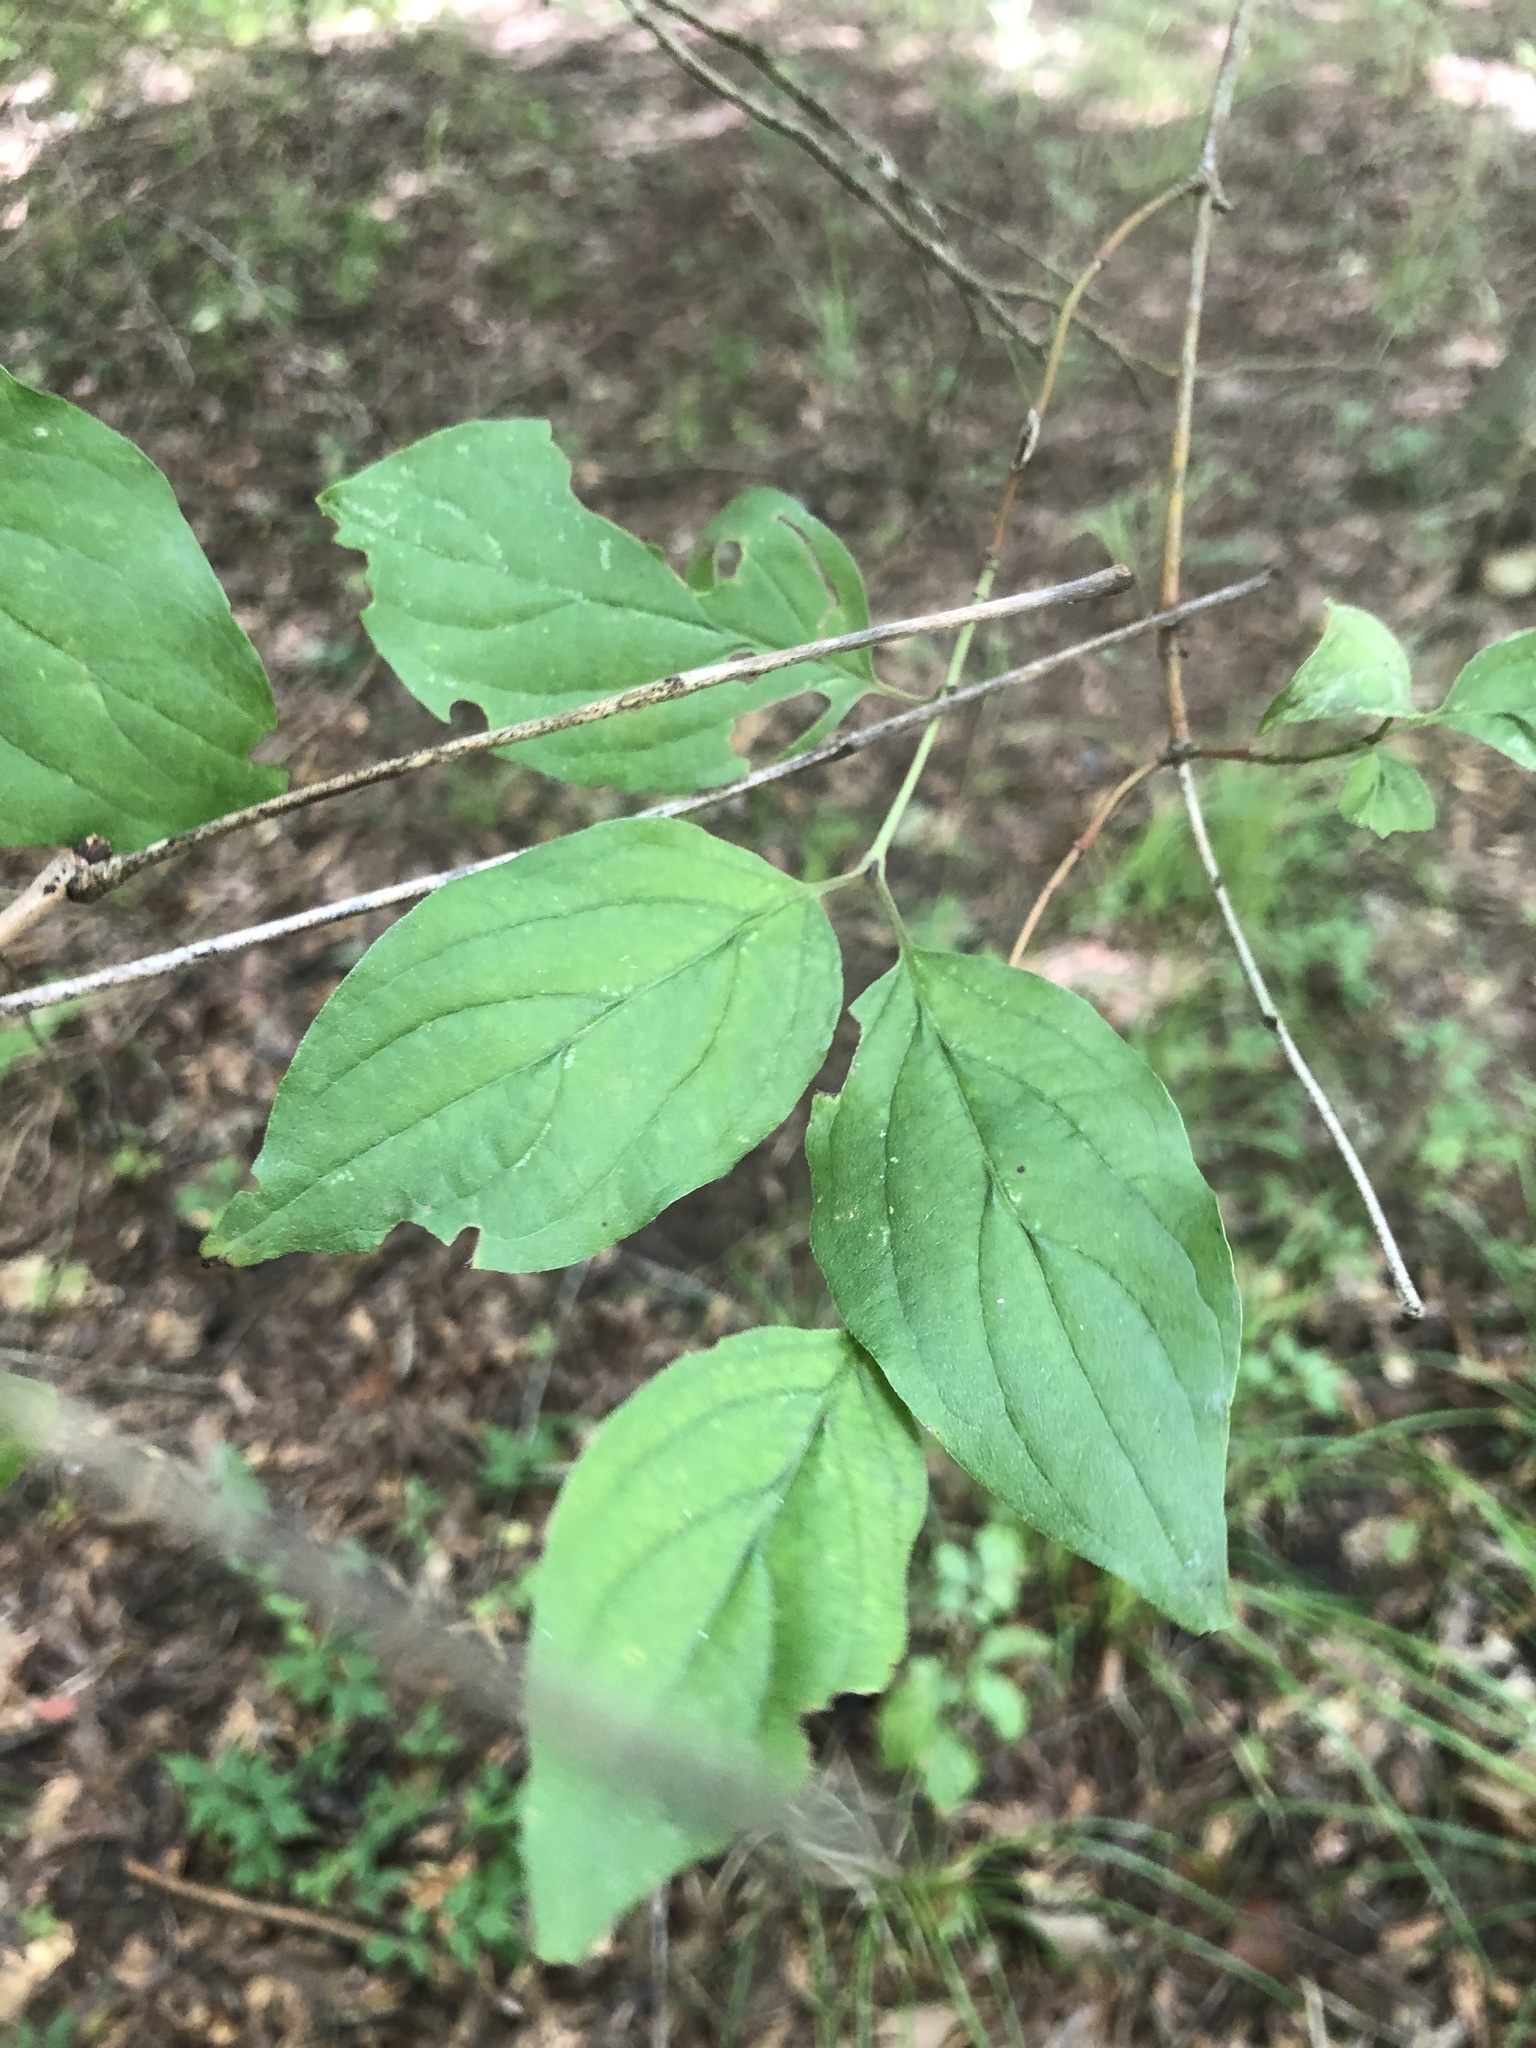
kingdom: Plantae
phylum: Tracheophyta
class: Magnoliopsida
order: Cornales
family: Cornaceae
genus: Cornus
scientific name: Cornus drummondii
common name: Rough-leaf dogwood
